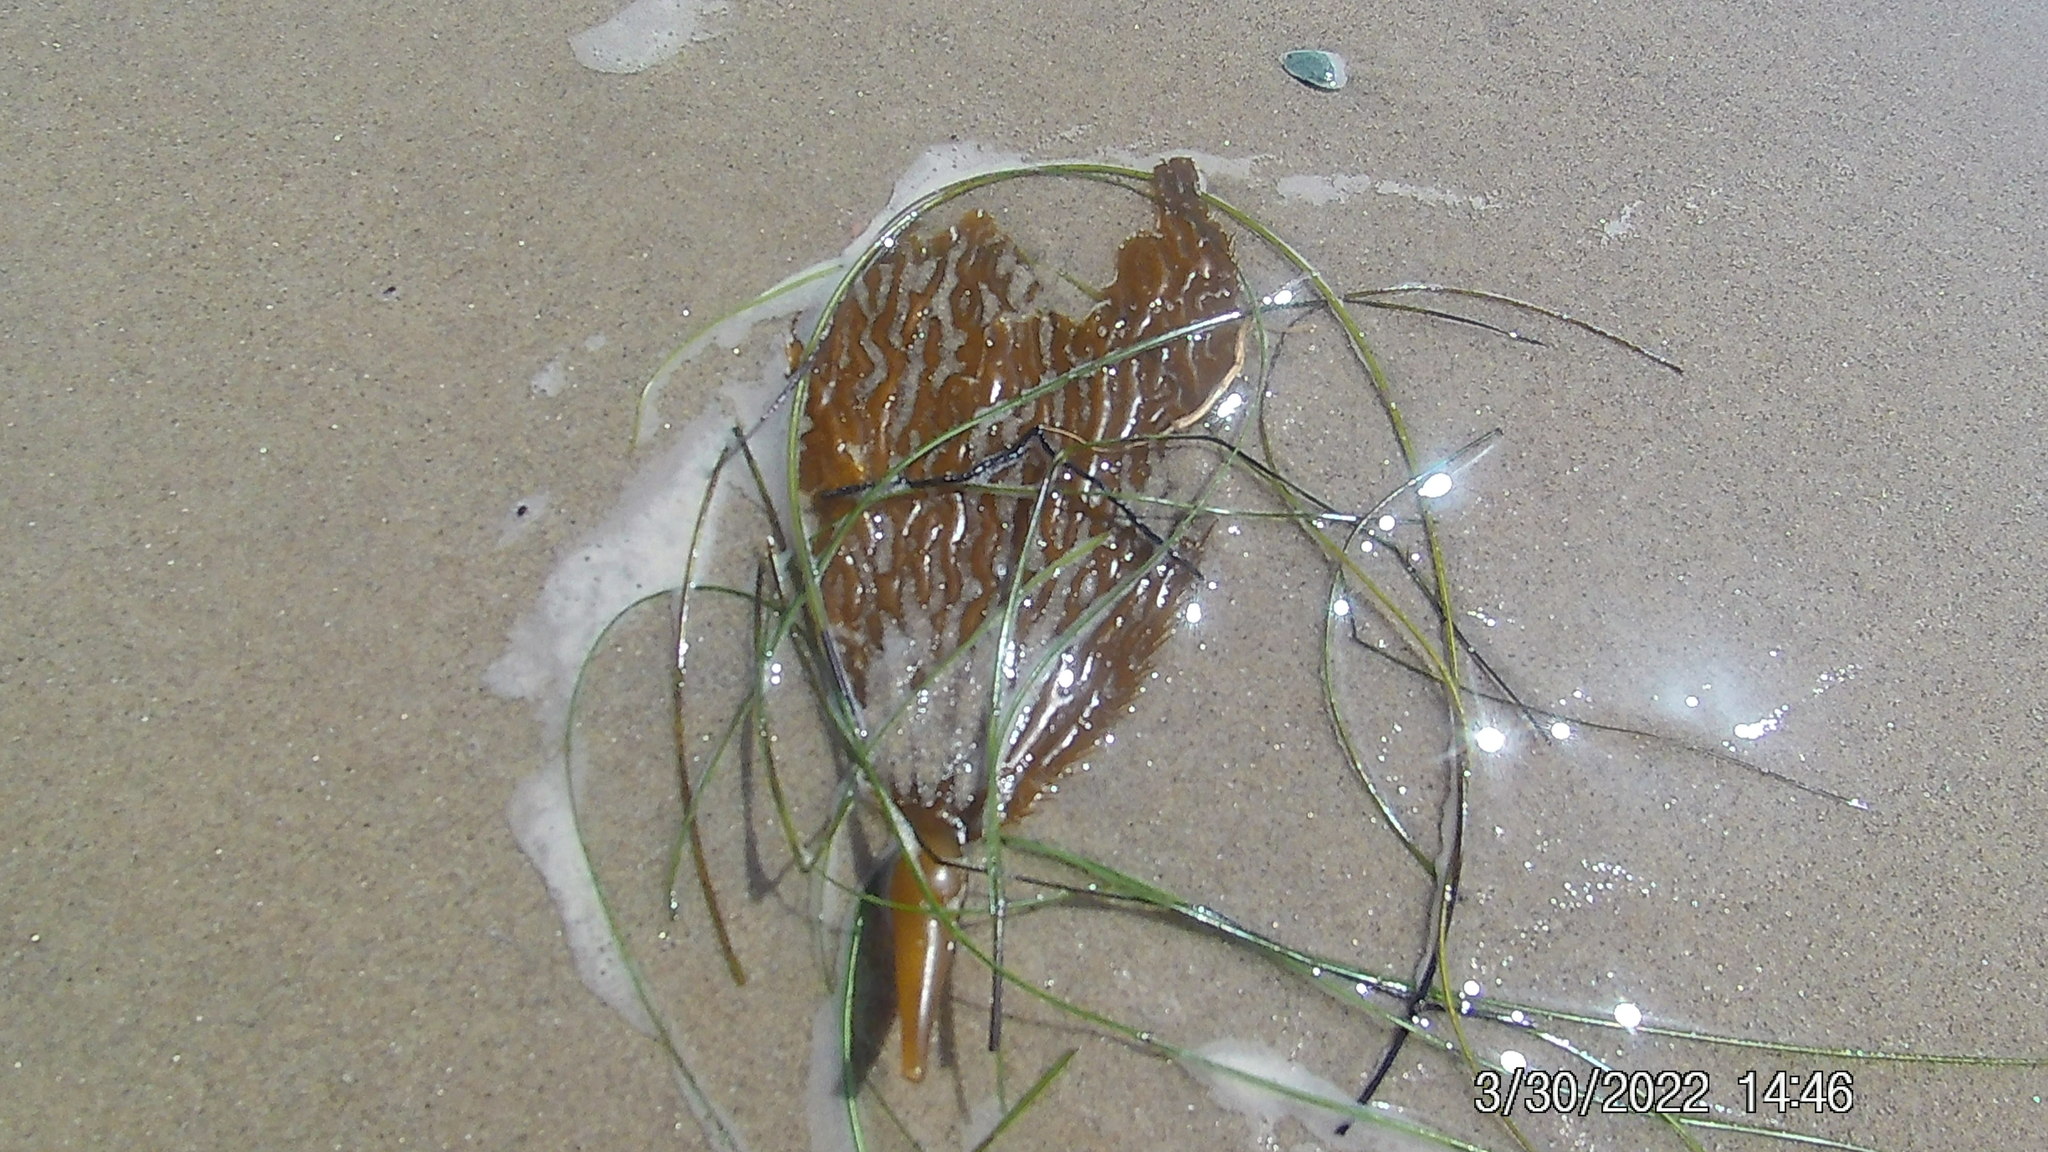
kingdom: Chromista
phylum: Ochrophyta
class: Phaeophyceae
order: Laminariales
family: Laminariaceae
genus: Macrocystis
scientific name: Macrocystis pyrifera
